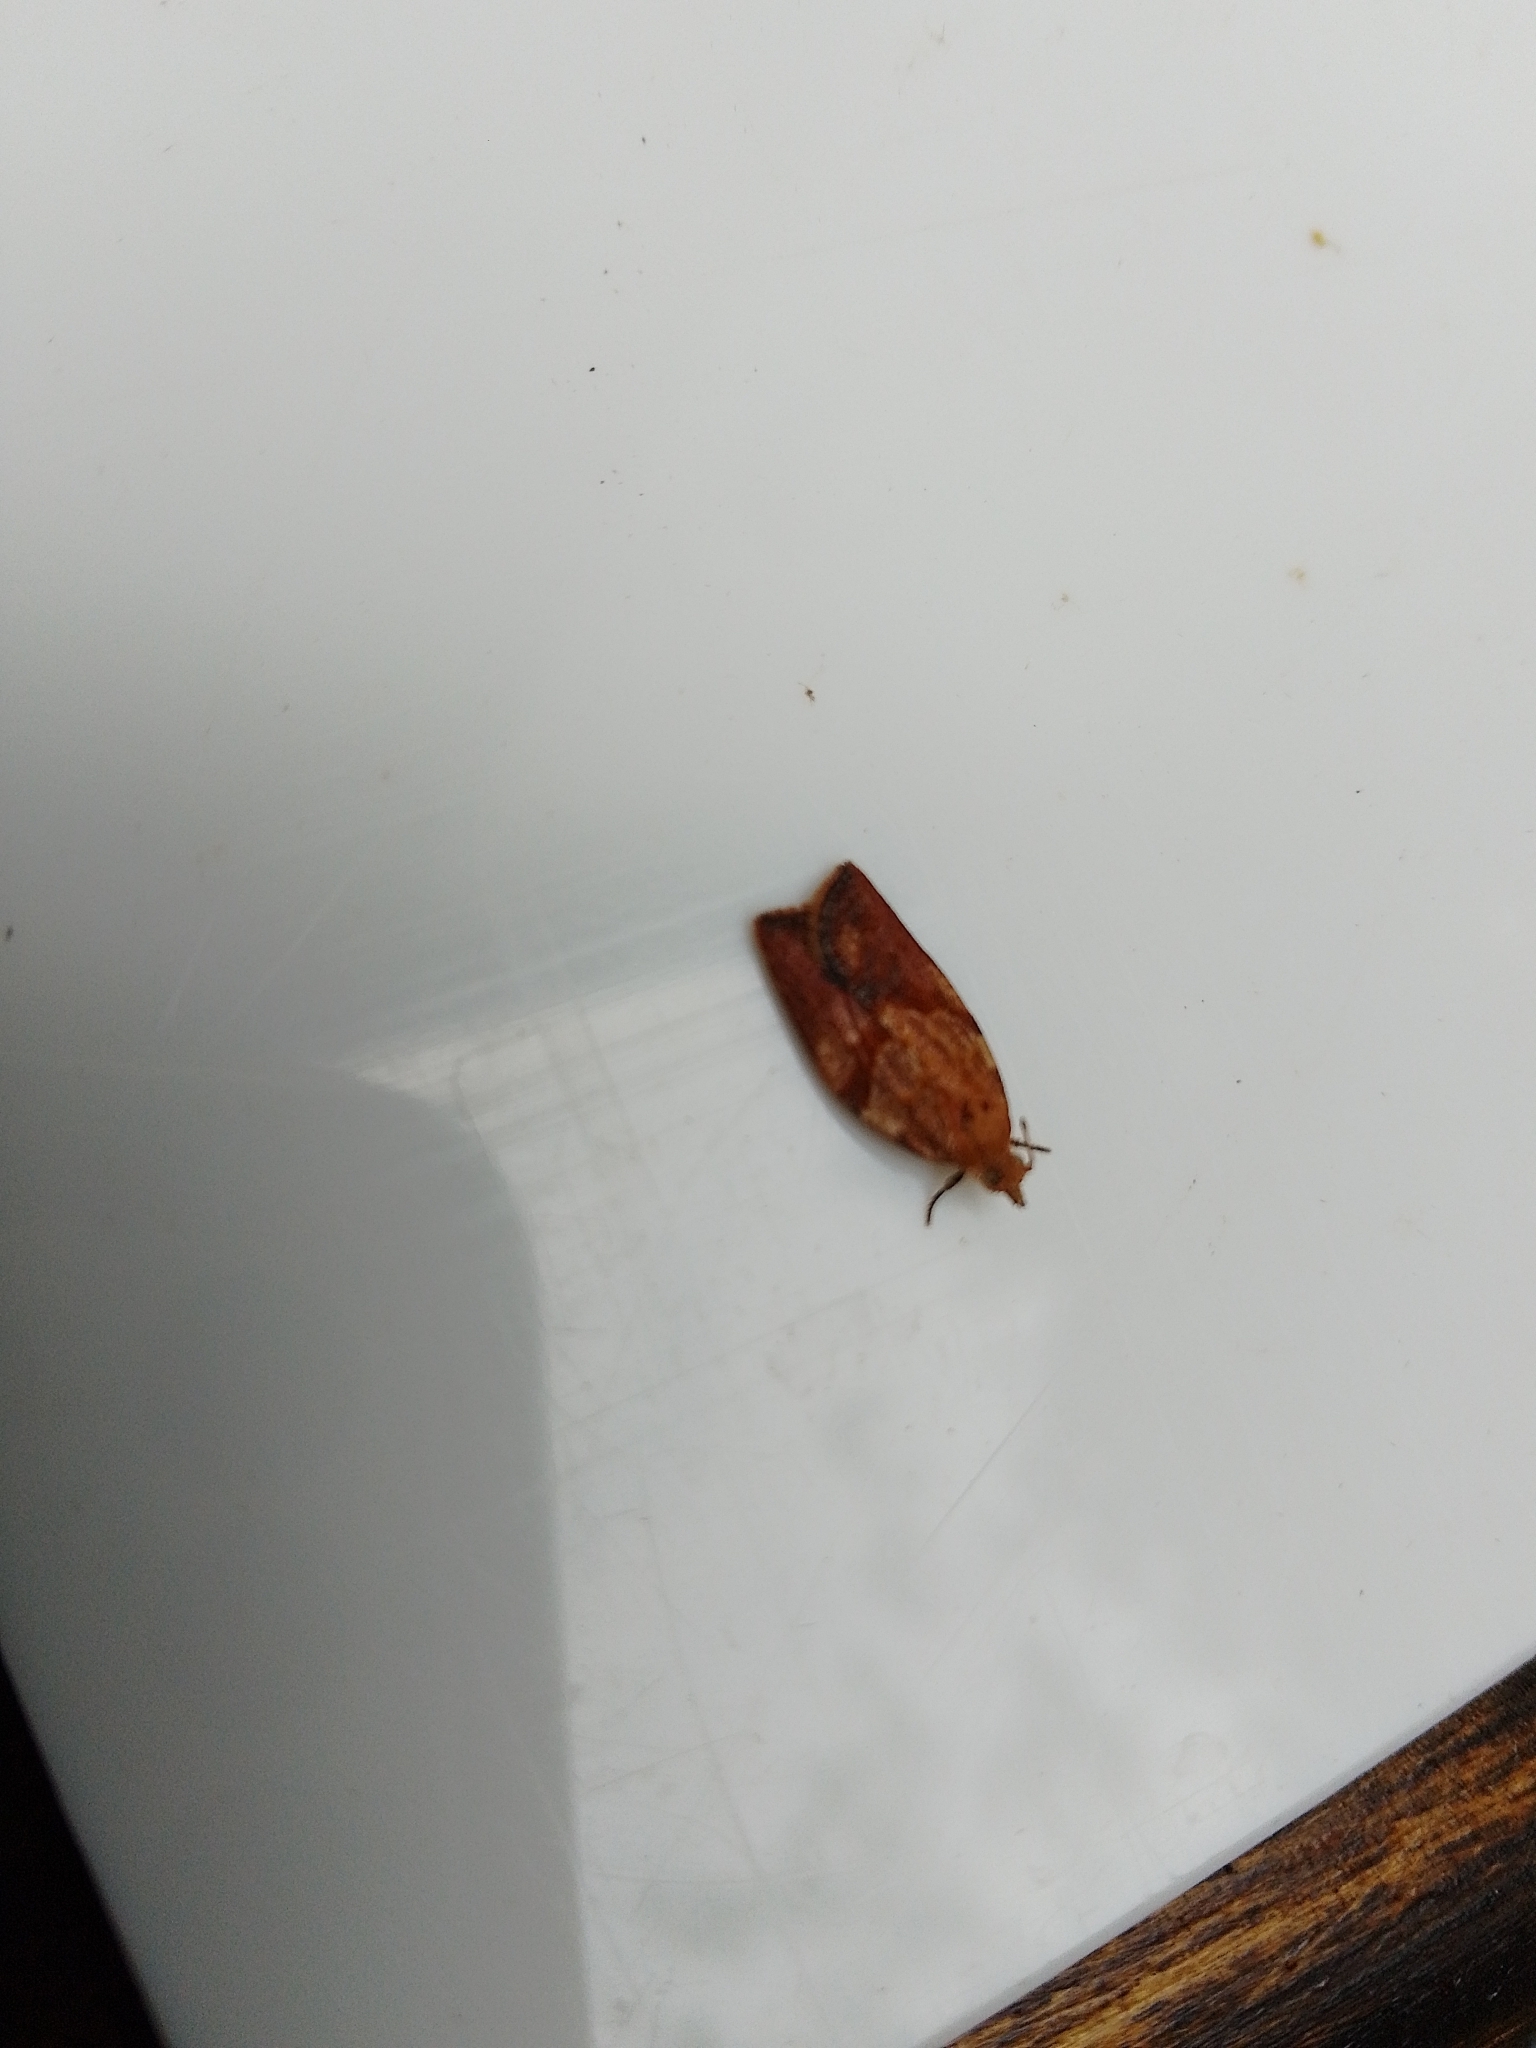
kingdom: Animalia
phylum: Arthropoda
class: Insecta
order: Lepidoptera
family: Tortricidae
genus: Epiphyas
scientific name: Epiphyas postvittana
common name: Light brown apple moth
